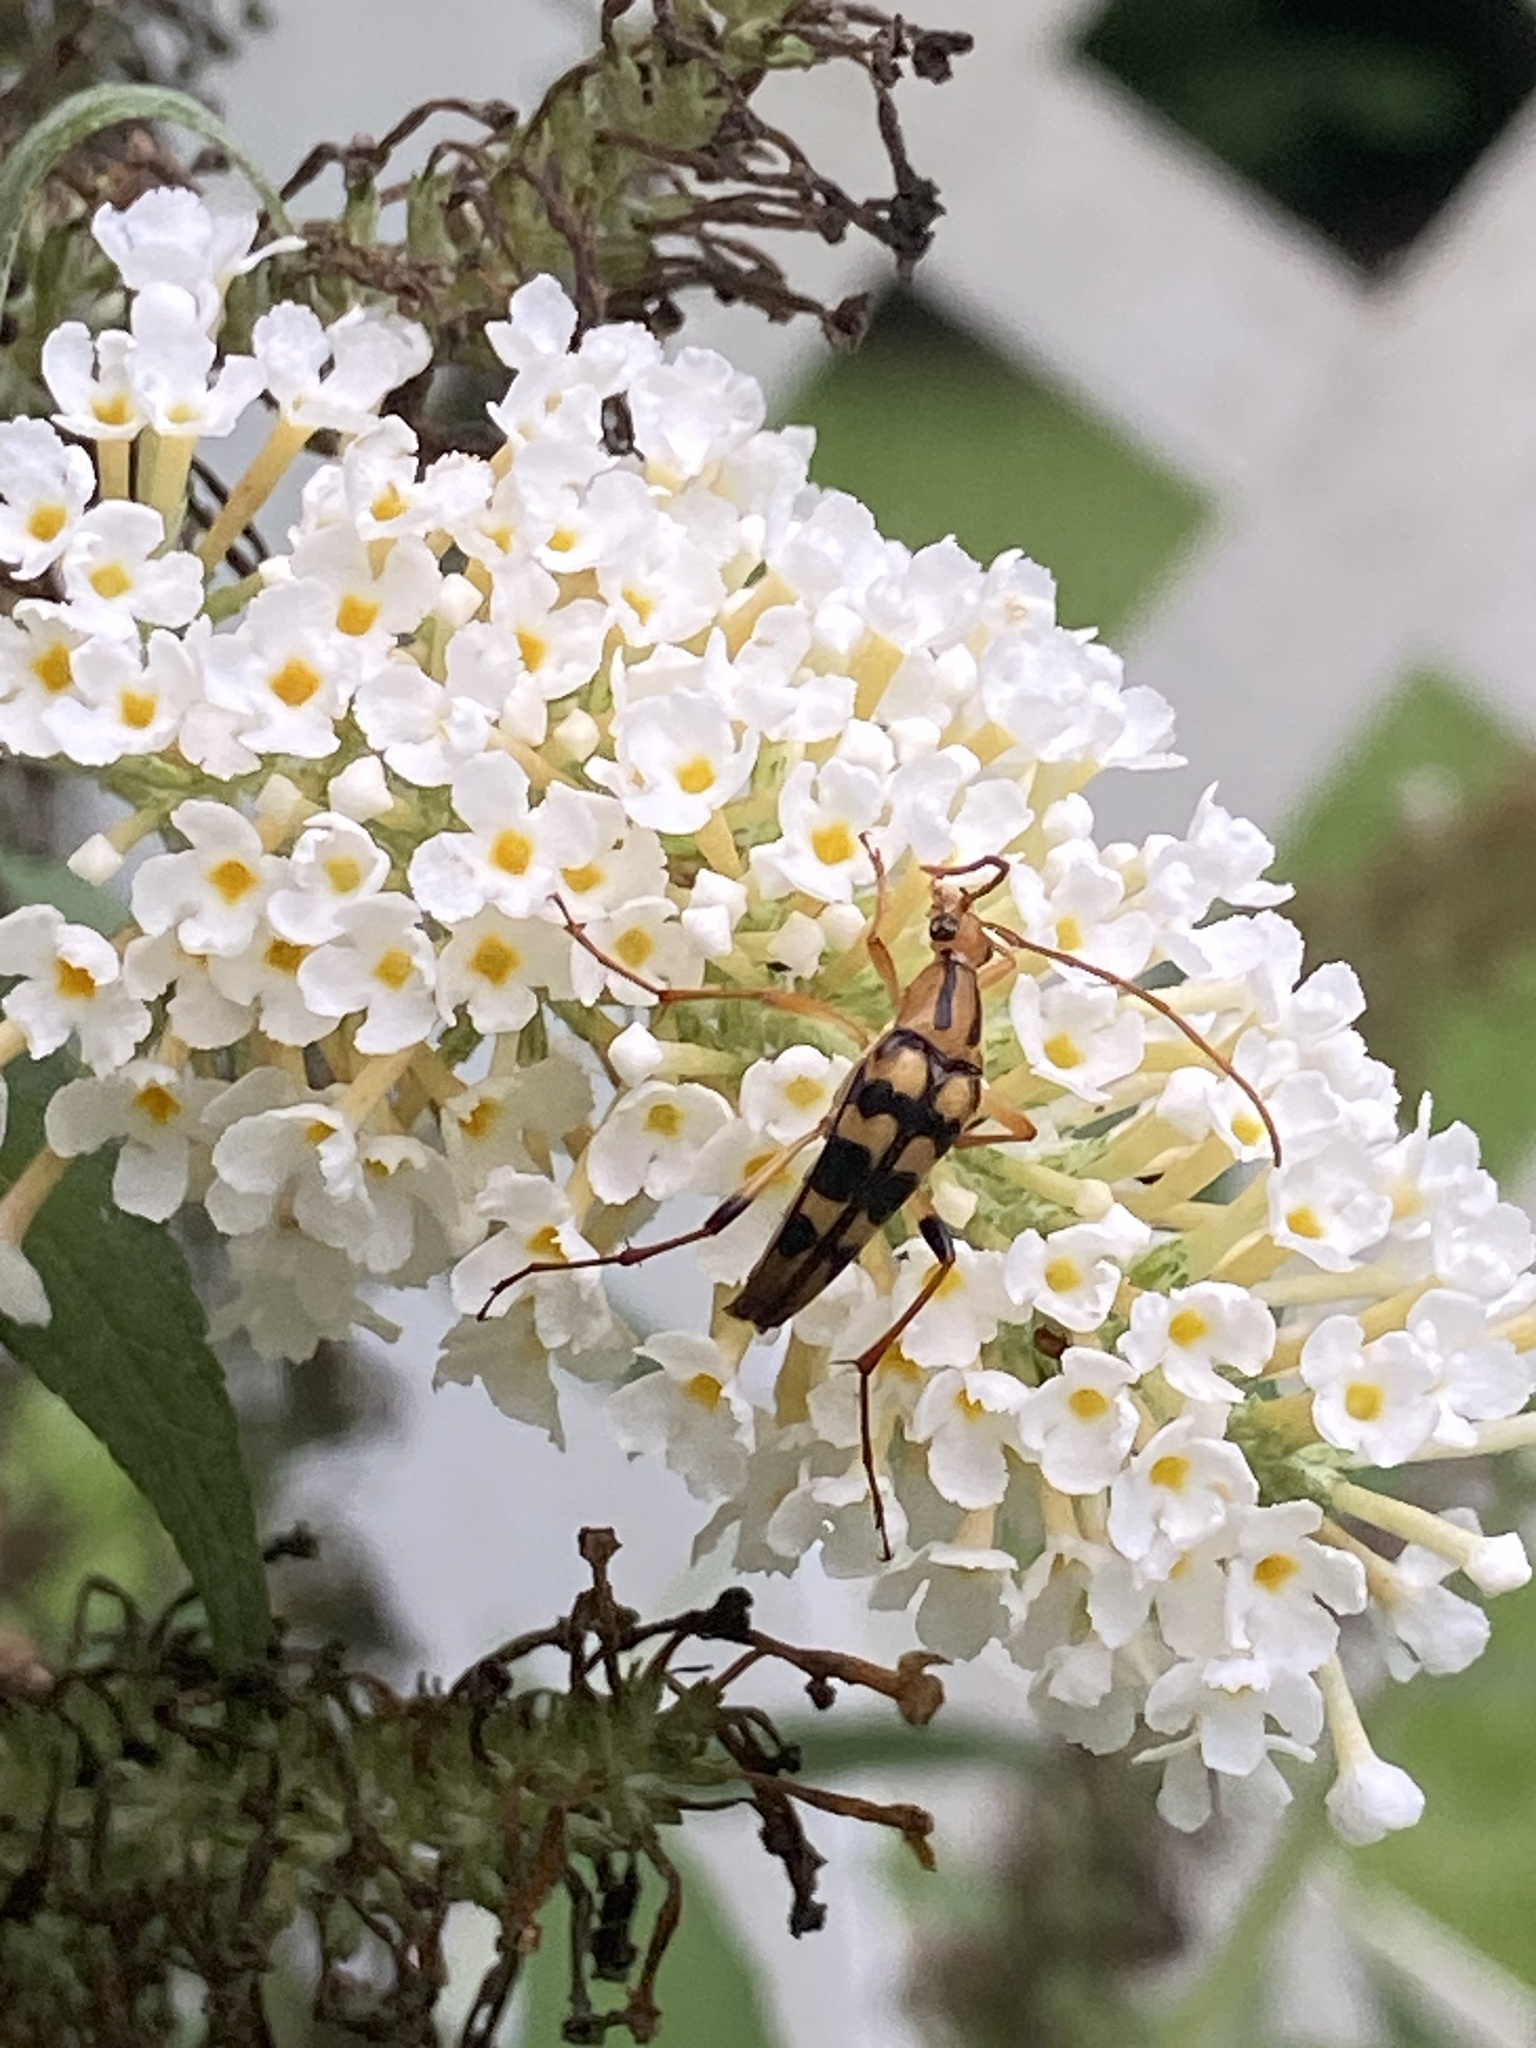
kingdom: Animalia
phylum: Arthropoda
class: Insecta
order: Coleoptera
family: Cerambycidae
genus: Strangalia
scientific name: Strangalia luteicornis
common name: Yellow-horned flower longhorn beetle
